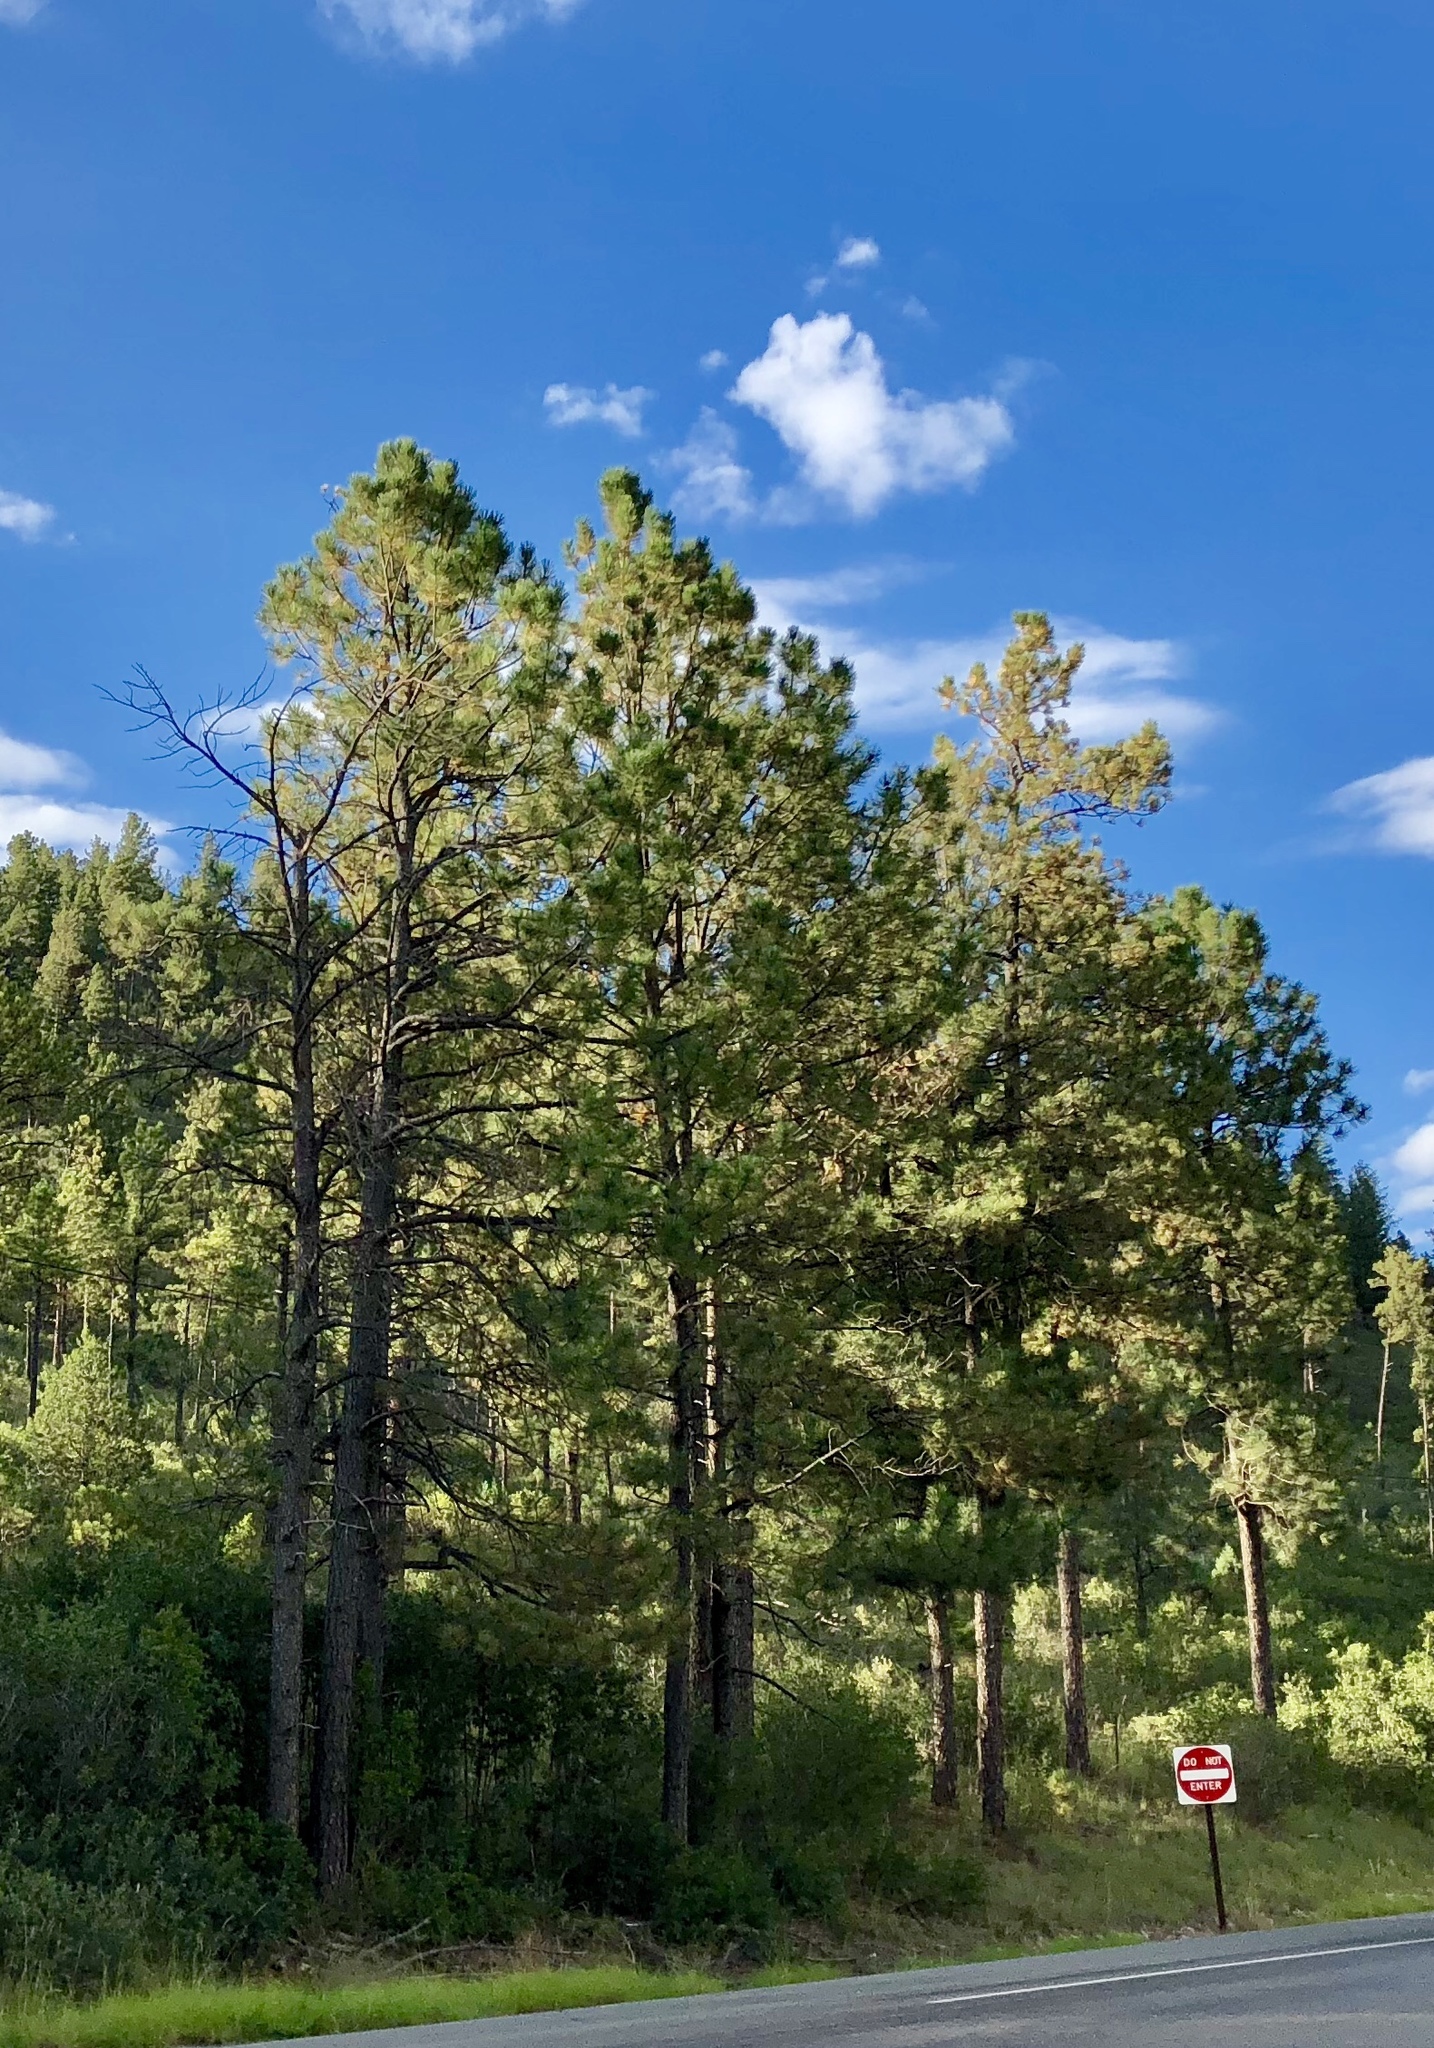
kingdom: Plantae
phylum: Tracheophyta
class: Pinopsida
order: Pinales
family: Pinaceae
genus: Pinus
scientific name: Pinus ponderosa
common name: Western yellow-pine
